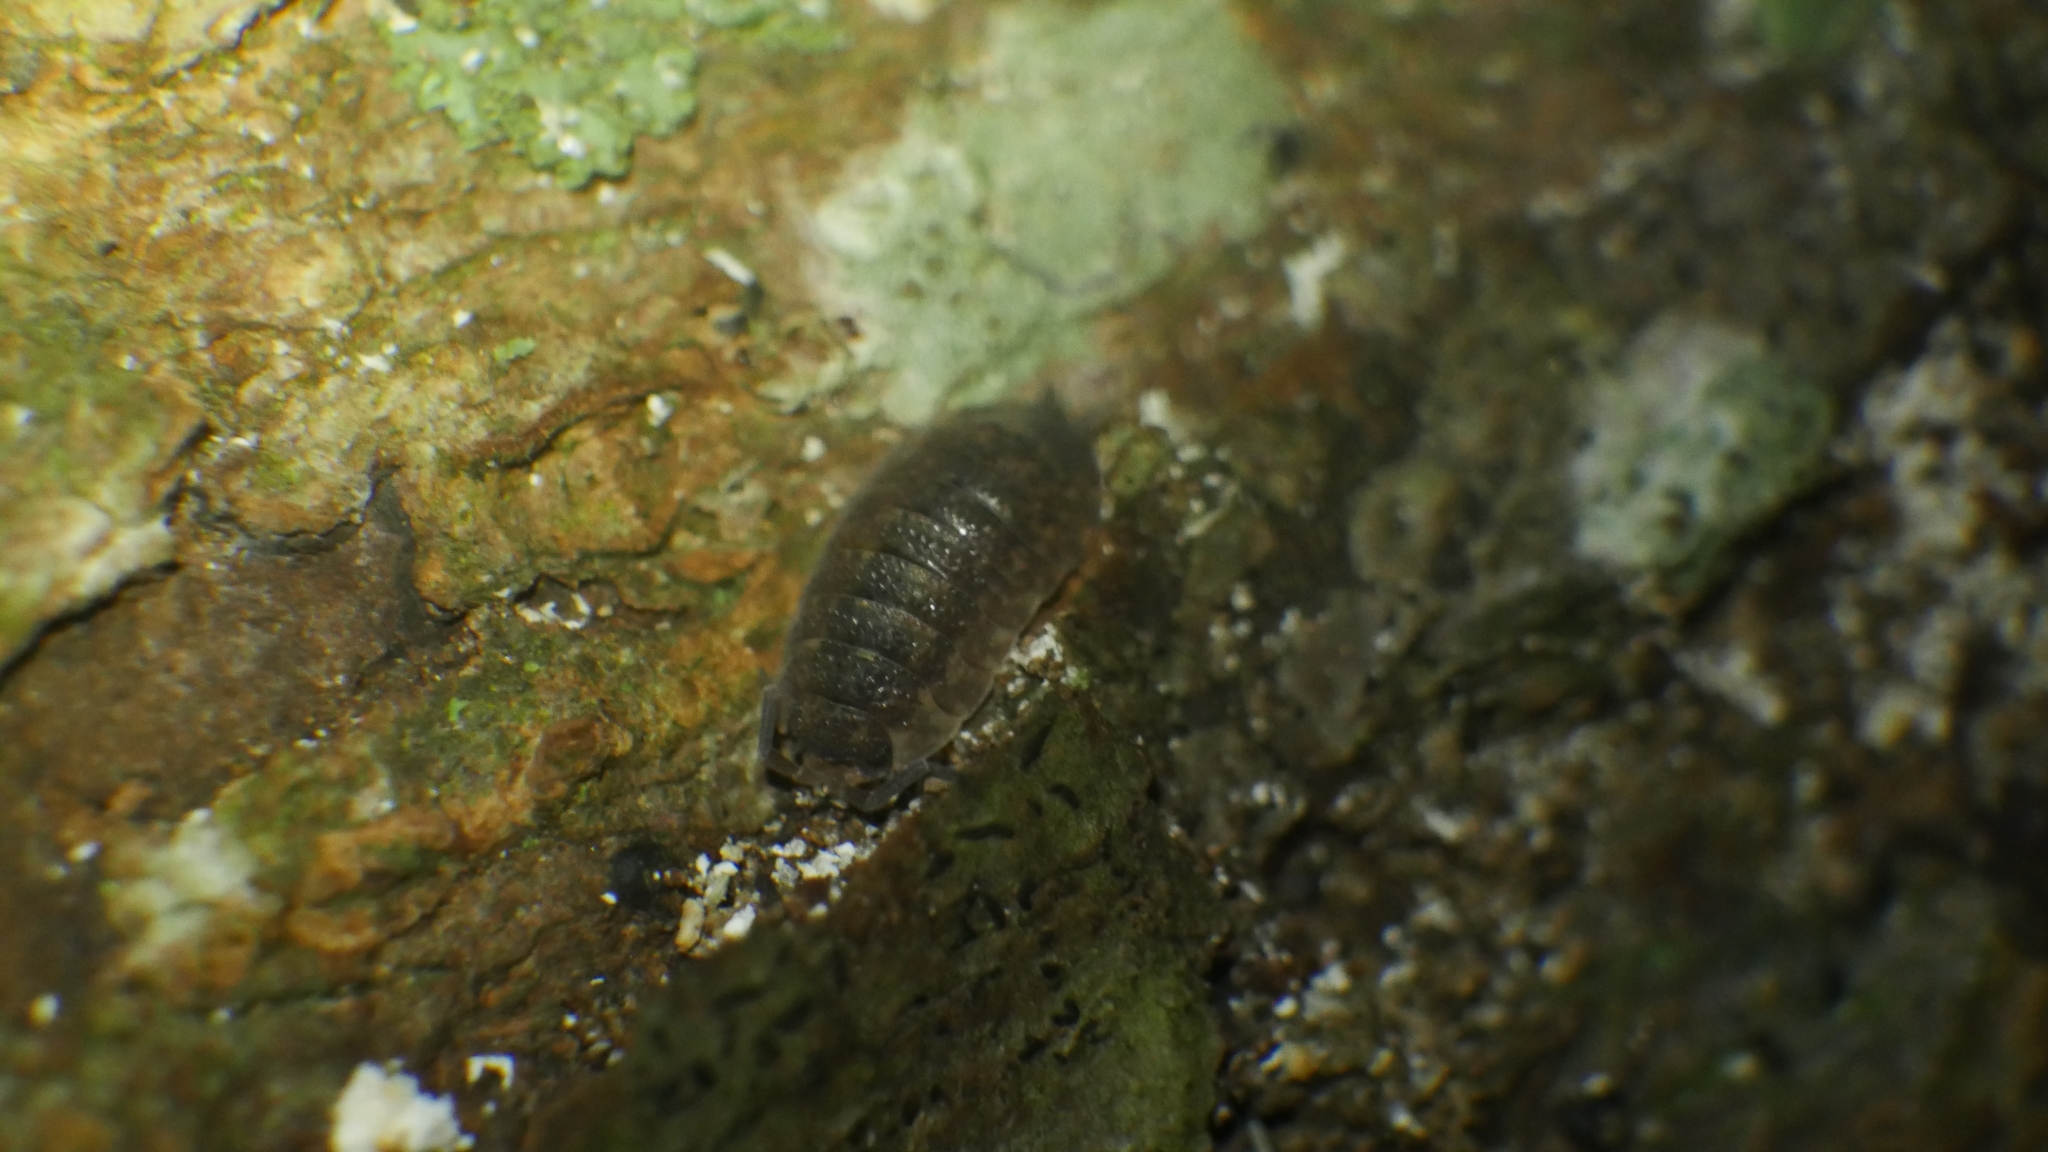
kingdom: Animalia
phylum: Arthropoda
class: Malacostraca
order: Isopoda
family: Porcellionidae
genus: Porcellio
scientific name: Porcellio scaber
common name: Common rough woodlouse
